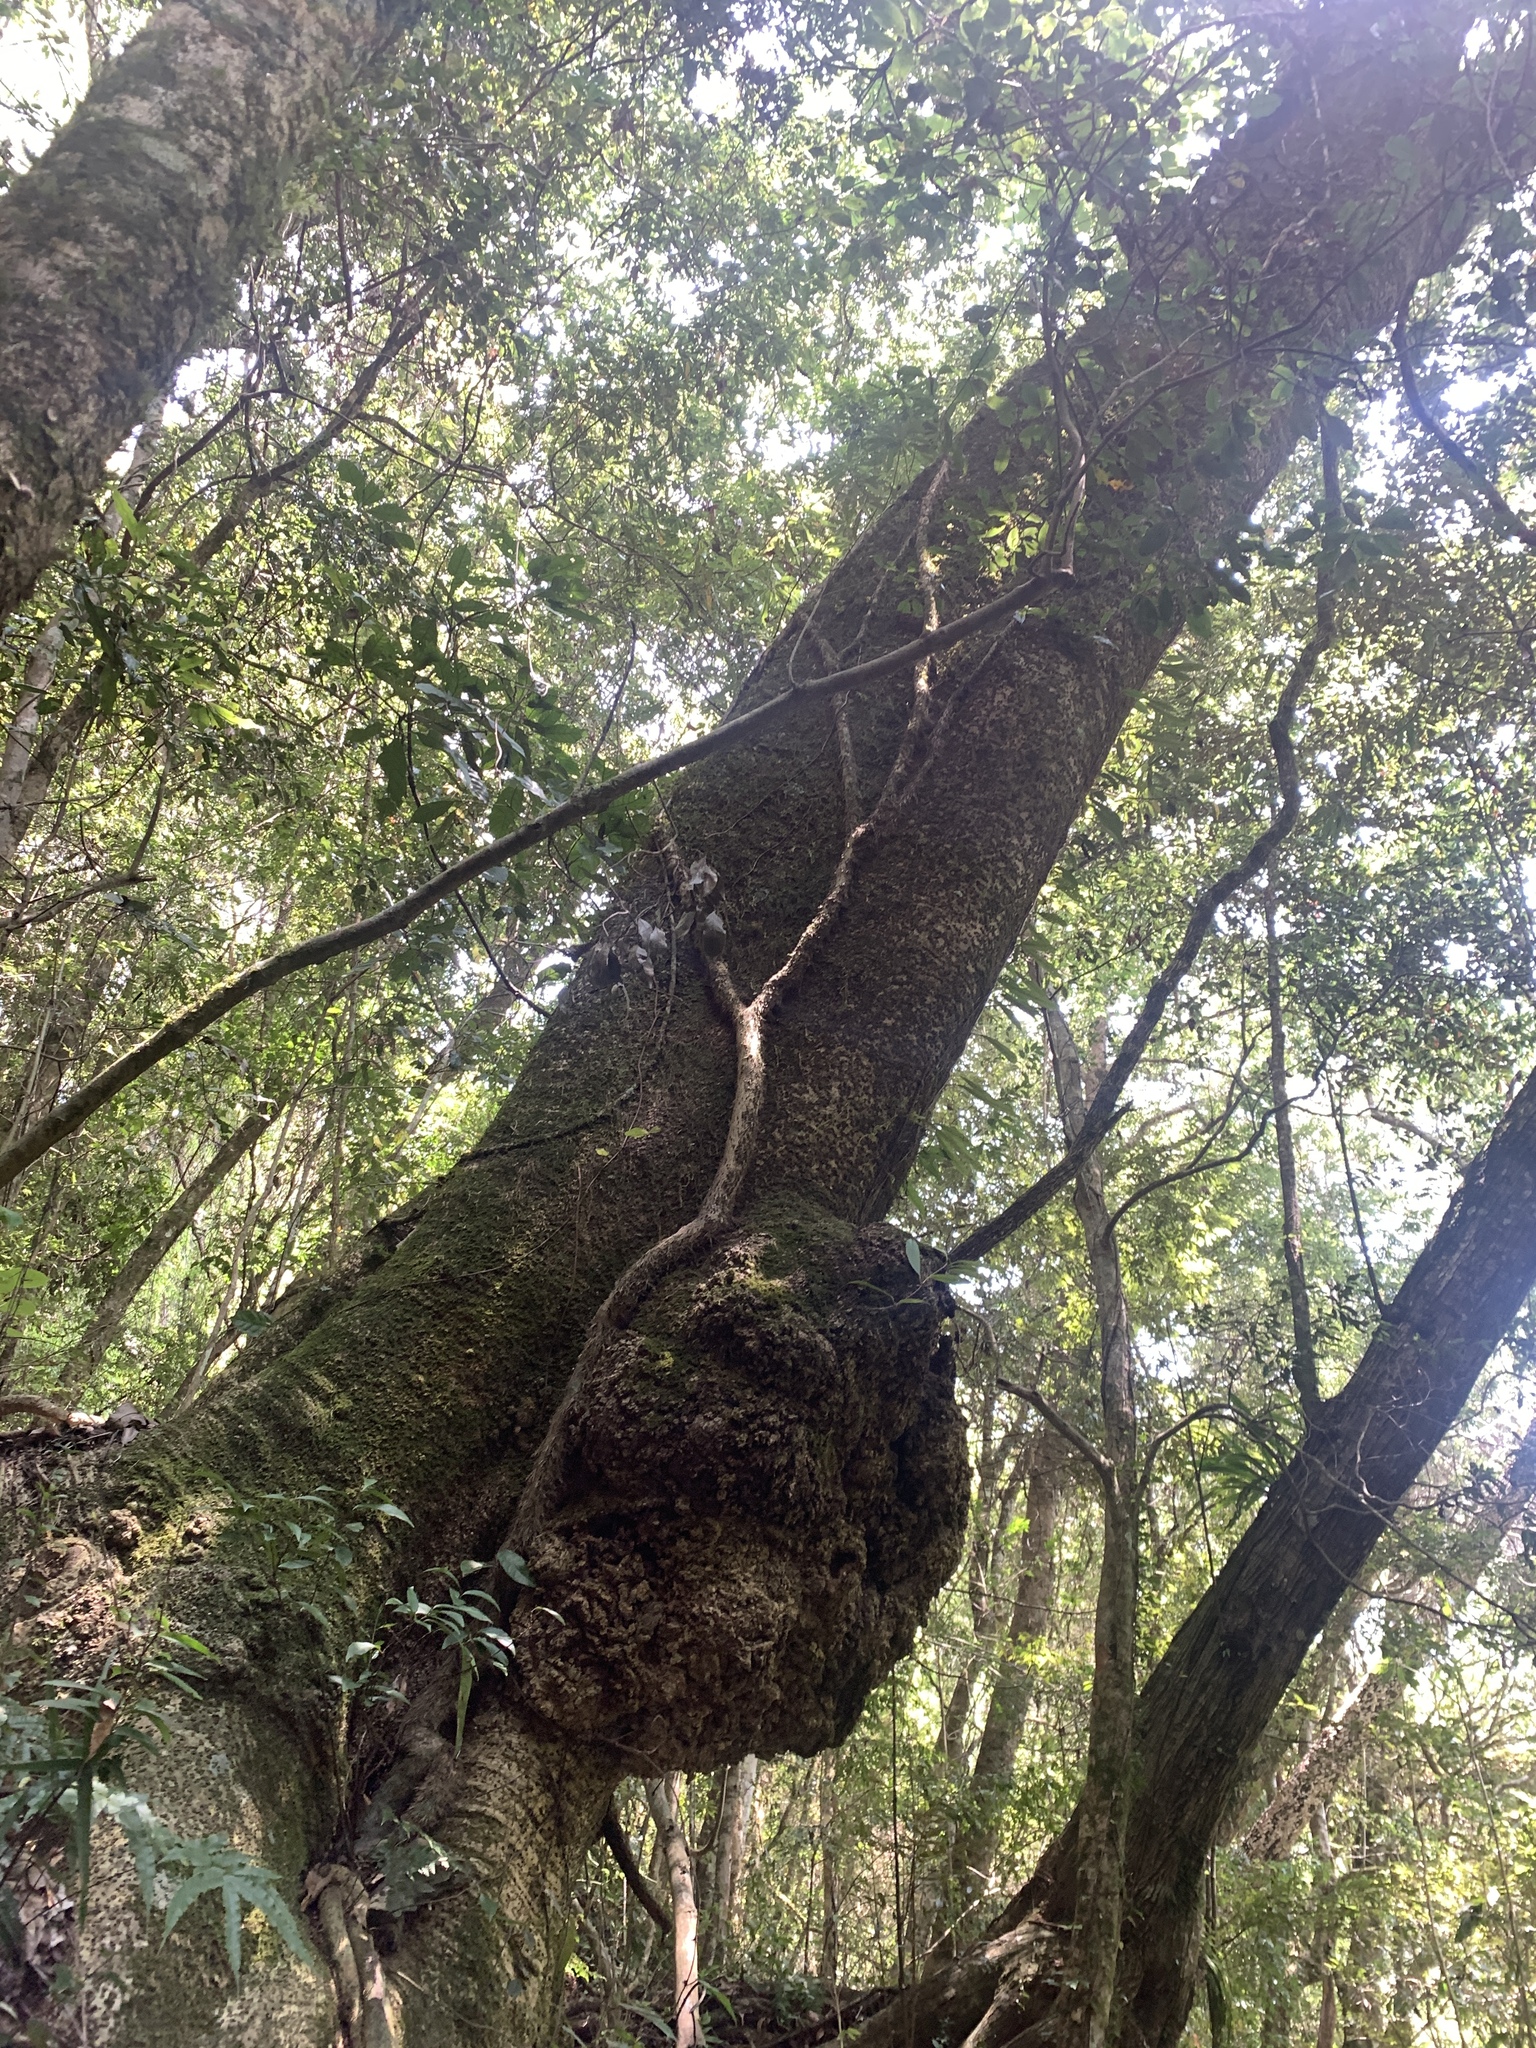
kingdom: Plantae
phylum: Tracheophyta
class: Magnoliopsida
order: Malpighiales
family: Salicaceae
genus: Idesia
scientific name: Idesia polycarpa
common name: Idesia tree
